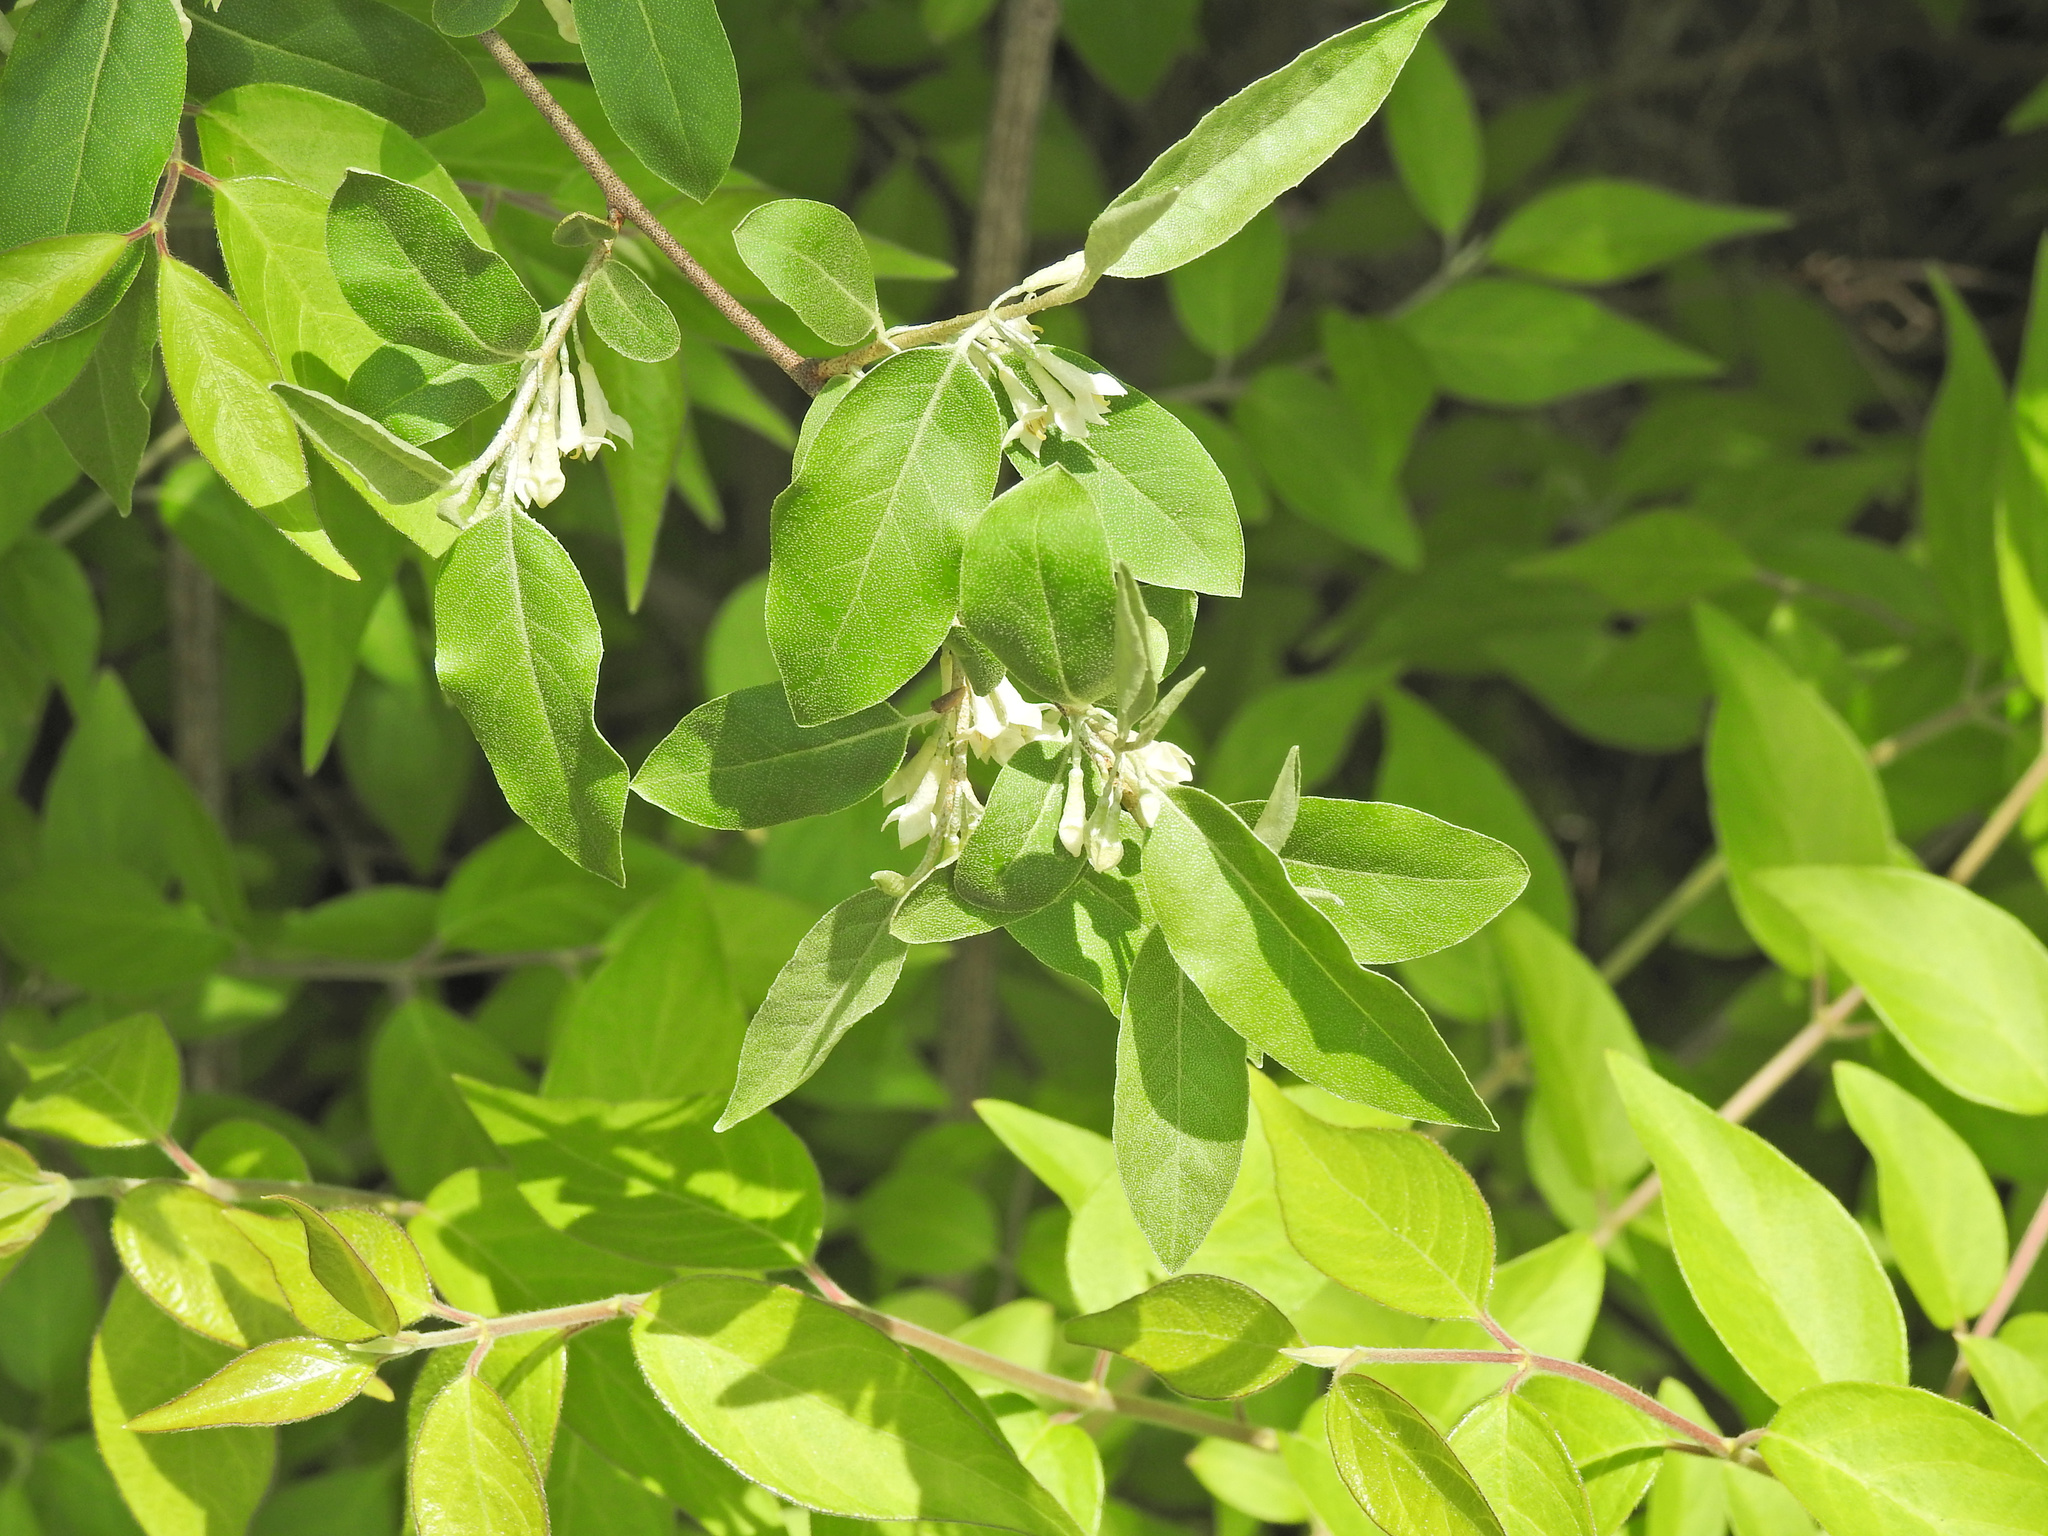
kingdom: Plantae
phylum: Tracheophyta
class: Magnoliopsida
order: Rosales
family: Elaeagnaceae
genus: Elaeagnus
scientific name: Elaeagnus umbellata
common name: Autumn olive
